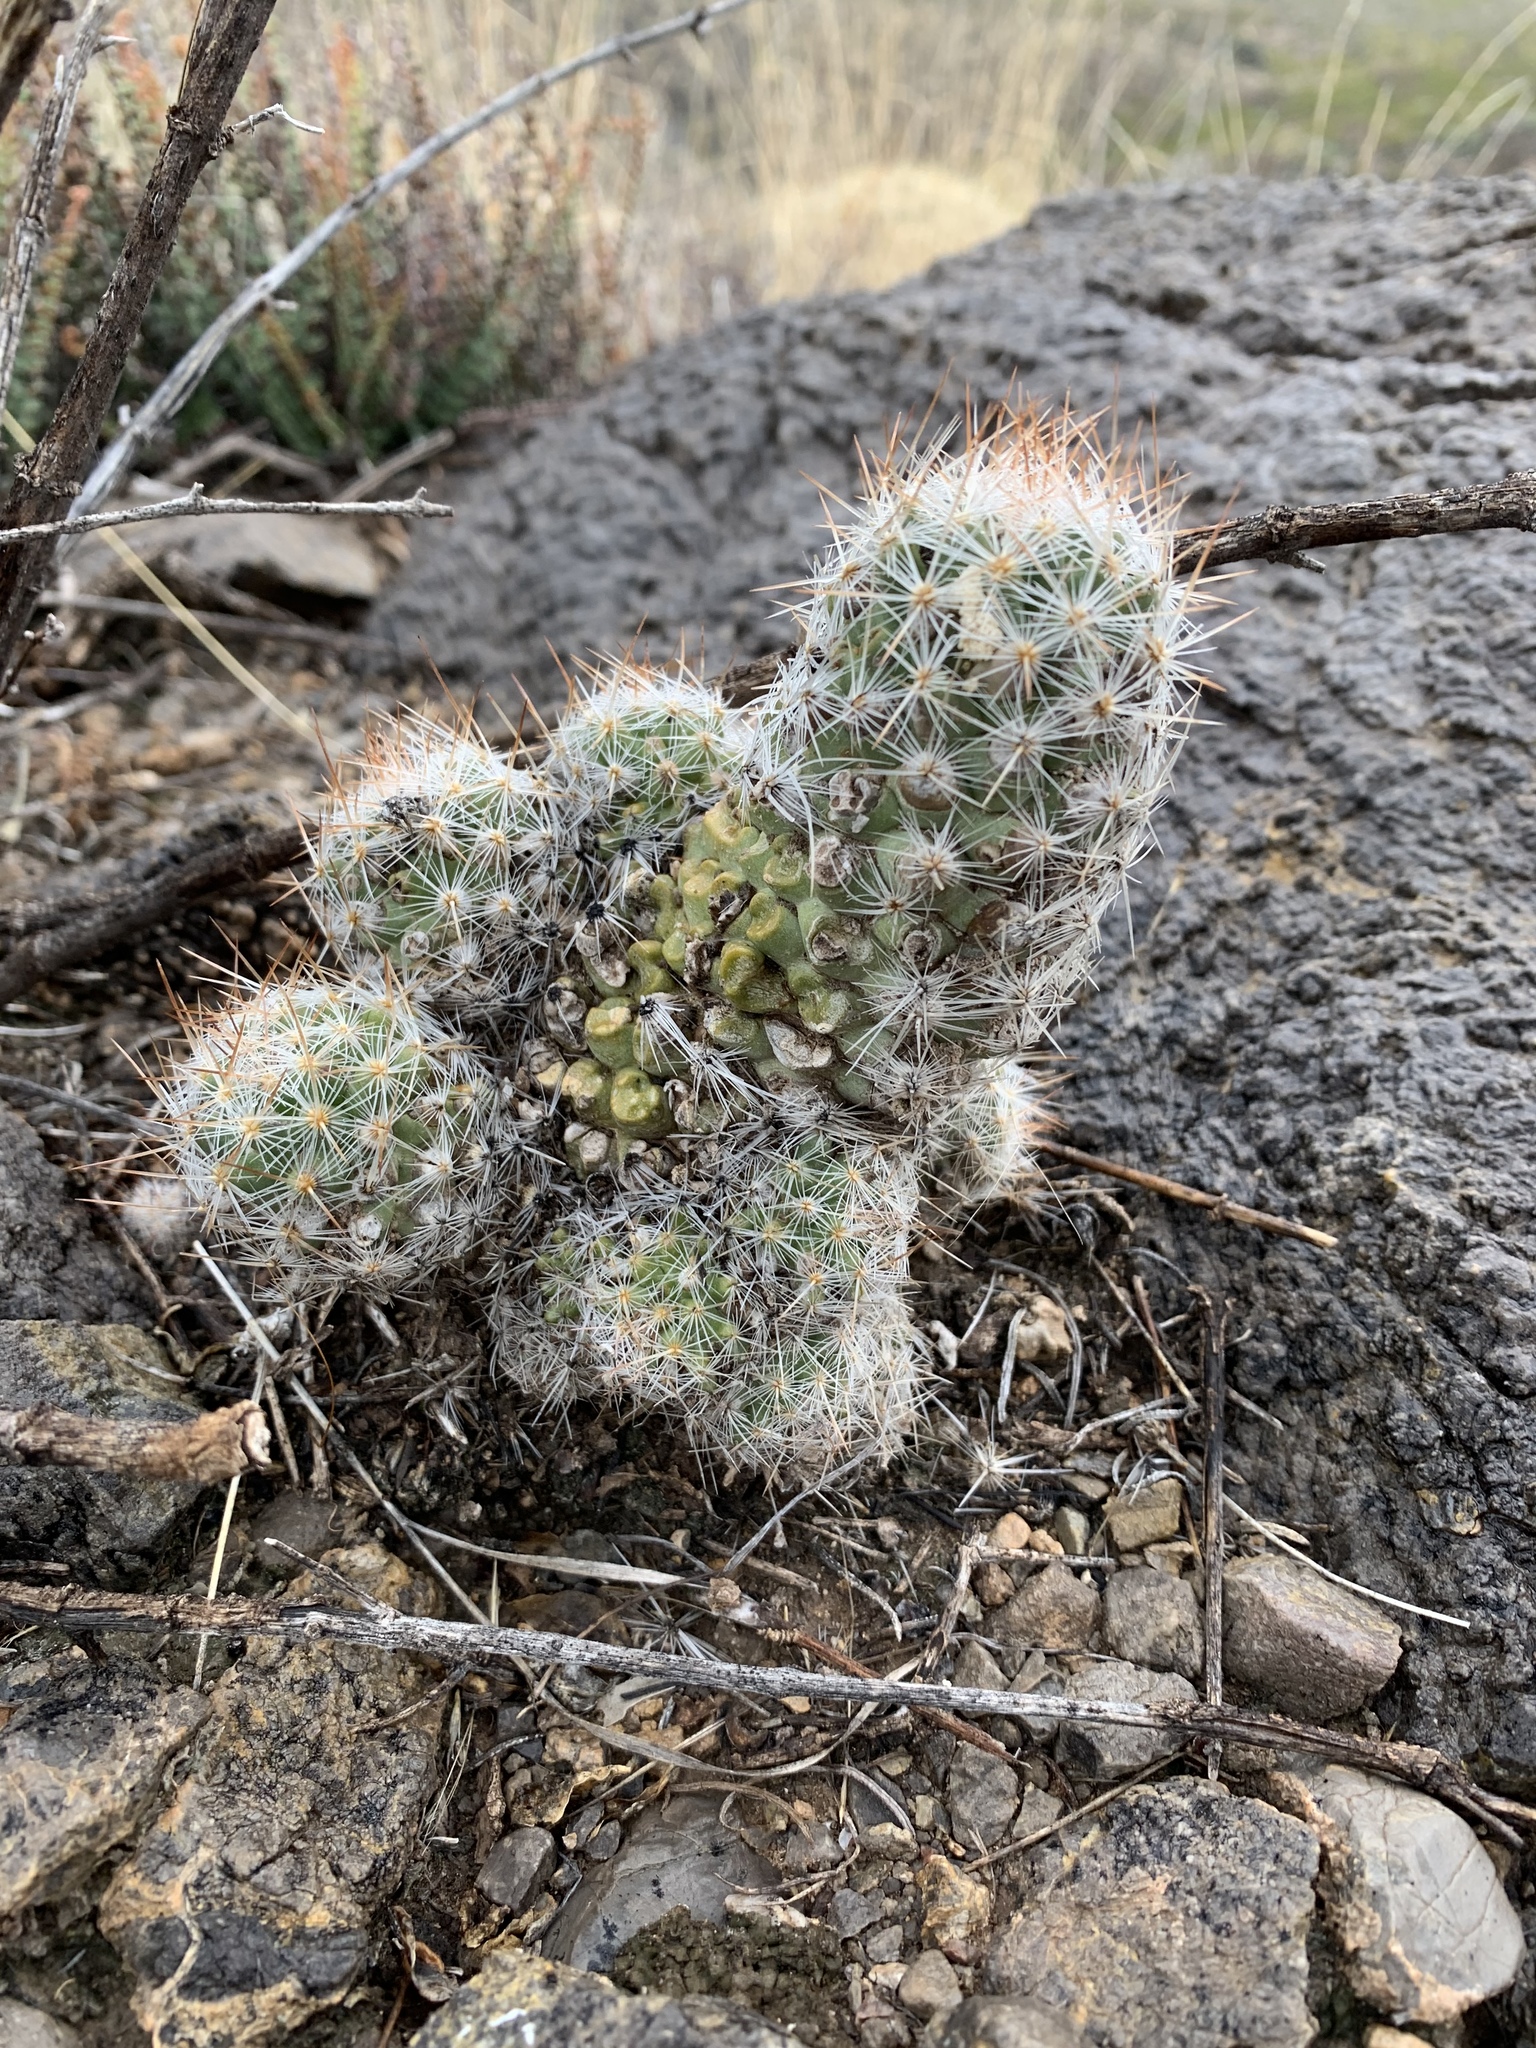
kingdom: Plantae
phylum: Tracheophyta
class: Magnoliopsida
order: Caryophyllales
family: Cactaceae
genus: Pelecyphora
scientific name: Pelecyphora tuberculosa
